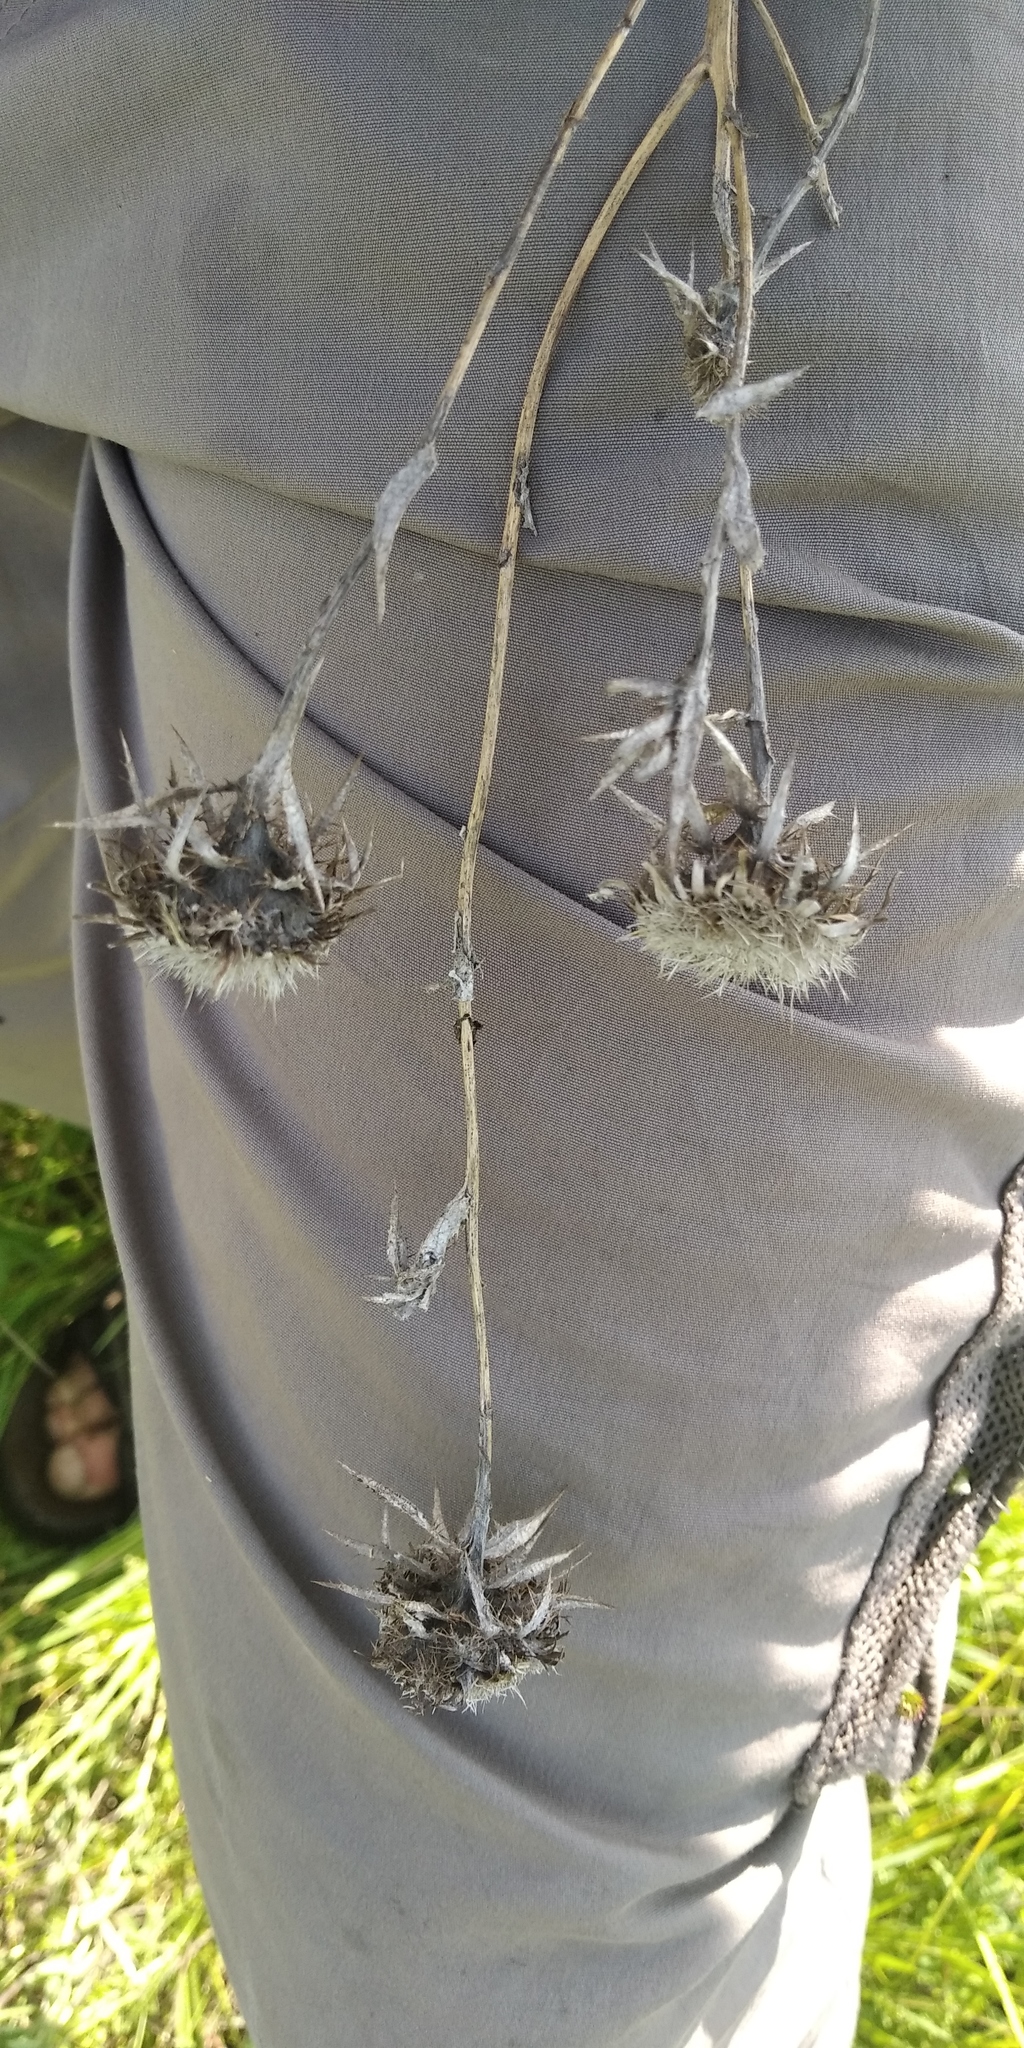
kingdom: Plantae
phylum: Tracheophyta
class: Magnoliopsida
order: Asterales
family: Asteraceae
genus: Carlina
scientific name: Carlina biebersteinii
